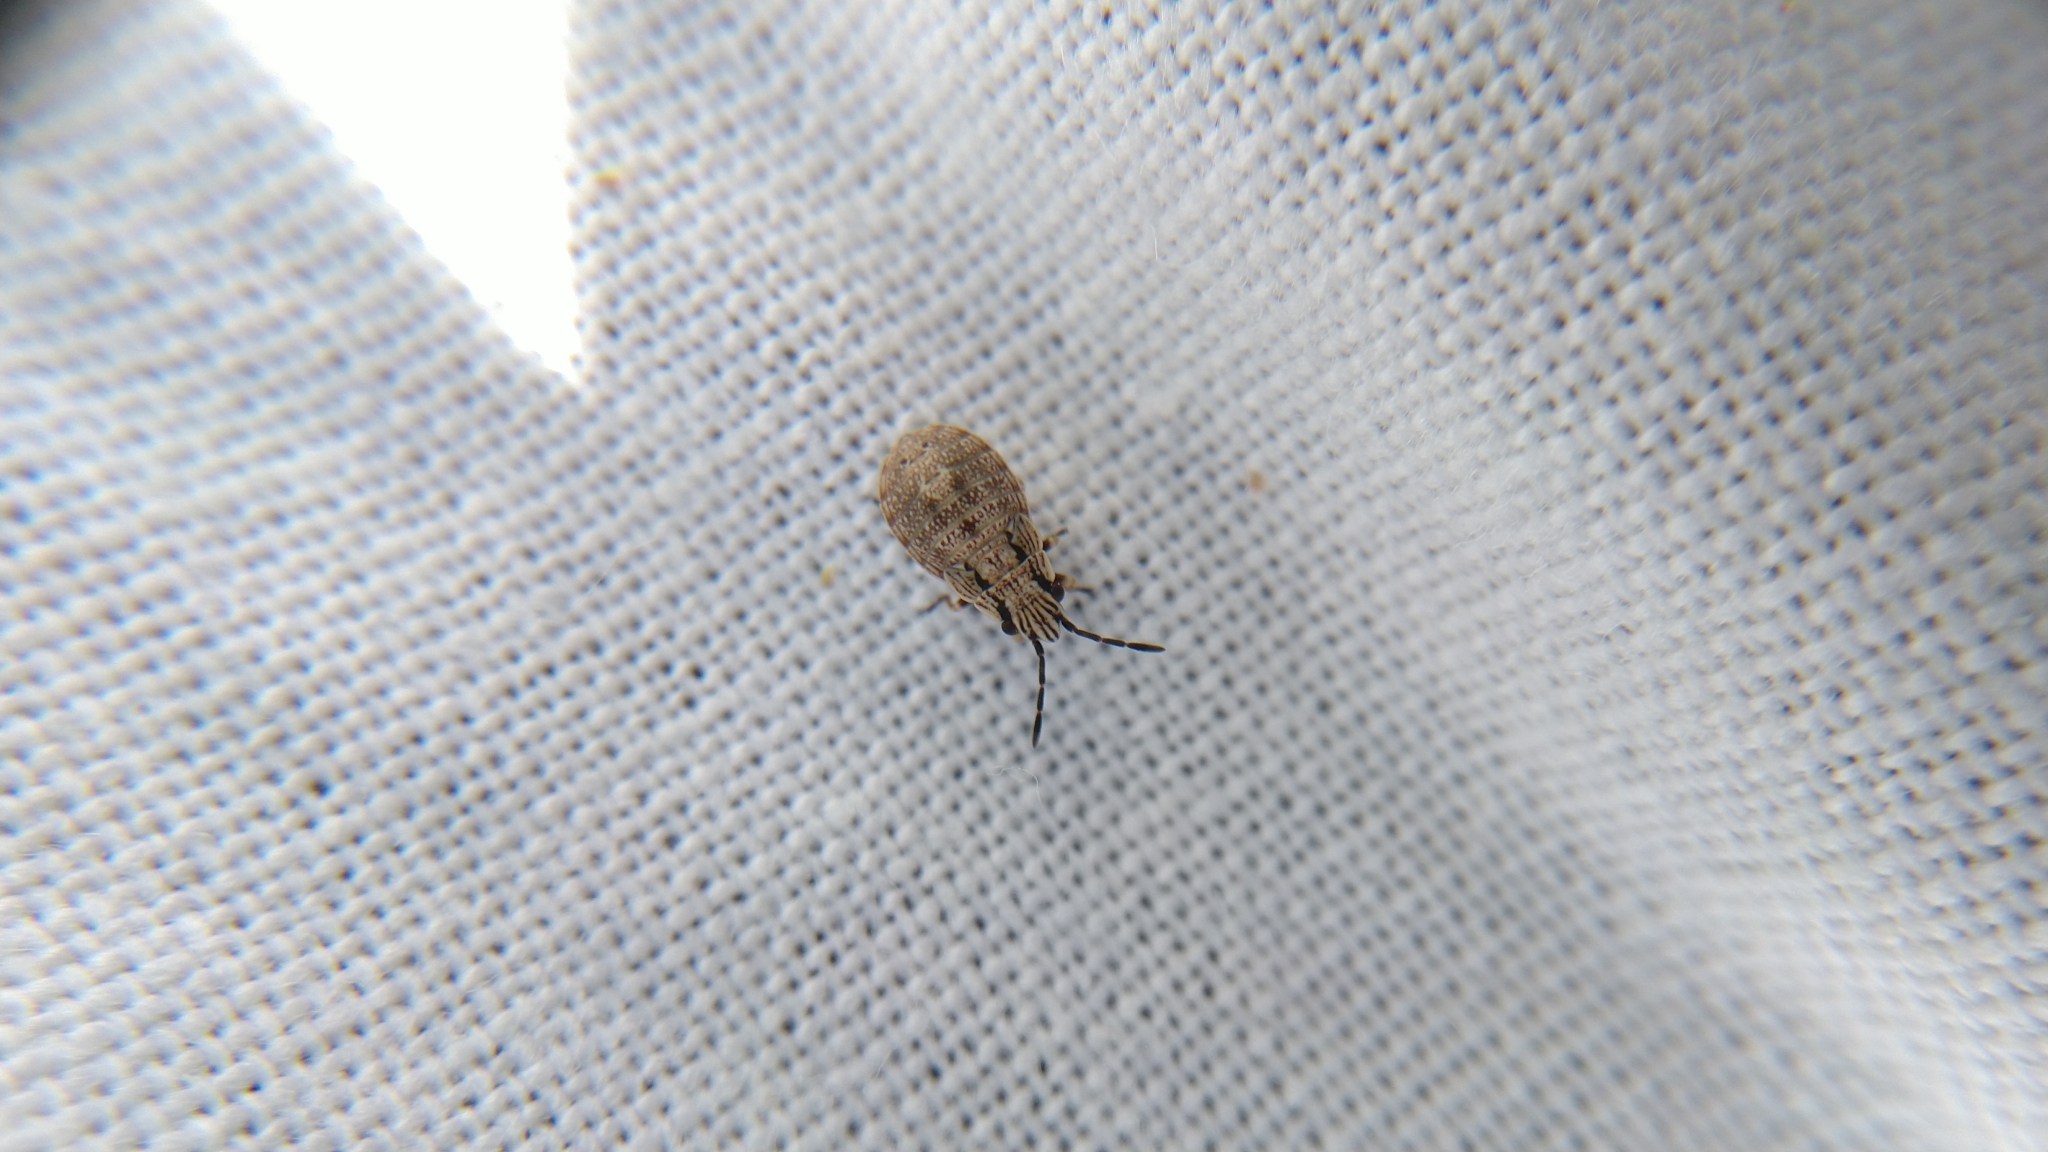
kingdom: Animalia
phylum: Arthropoda
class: Insecta
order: Hemiptera
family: Lygaeidae
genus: Nithecus
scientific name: Nithecus jacobaeae
